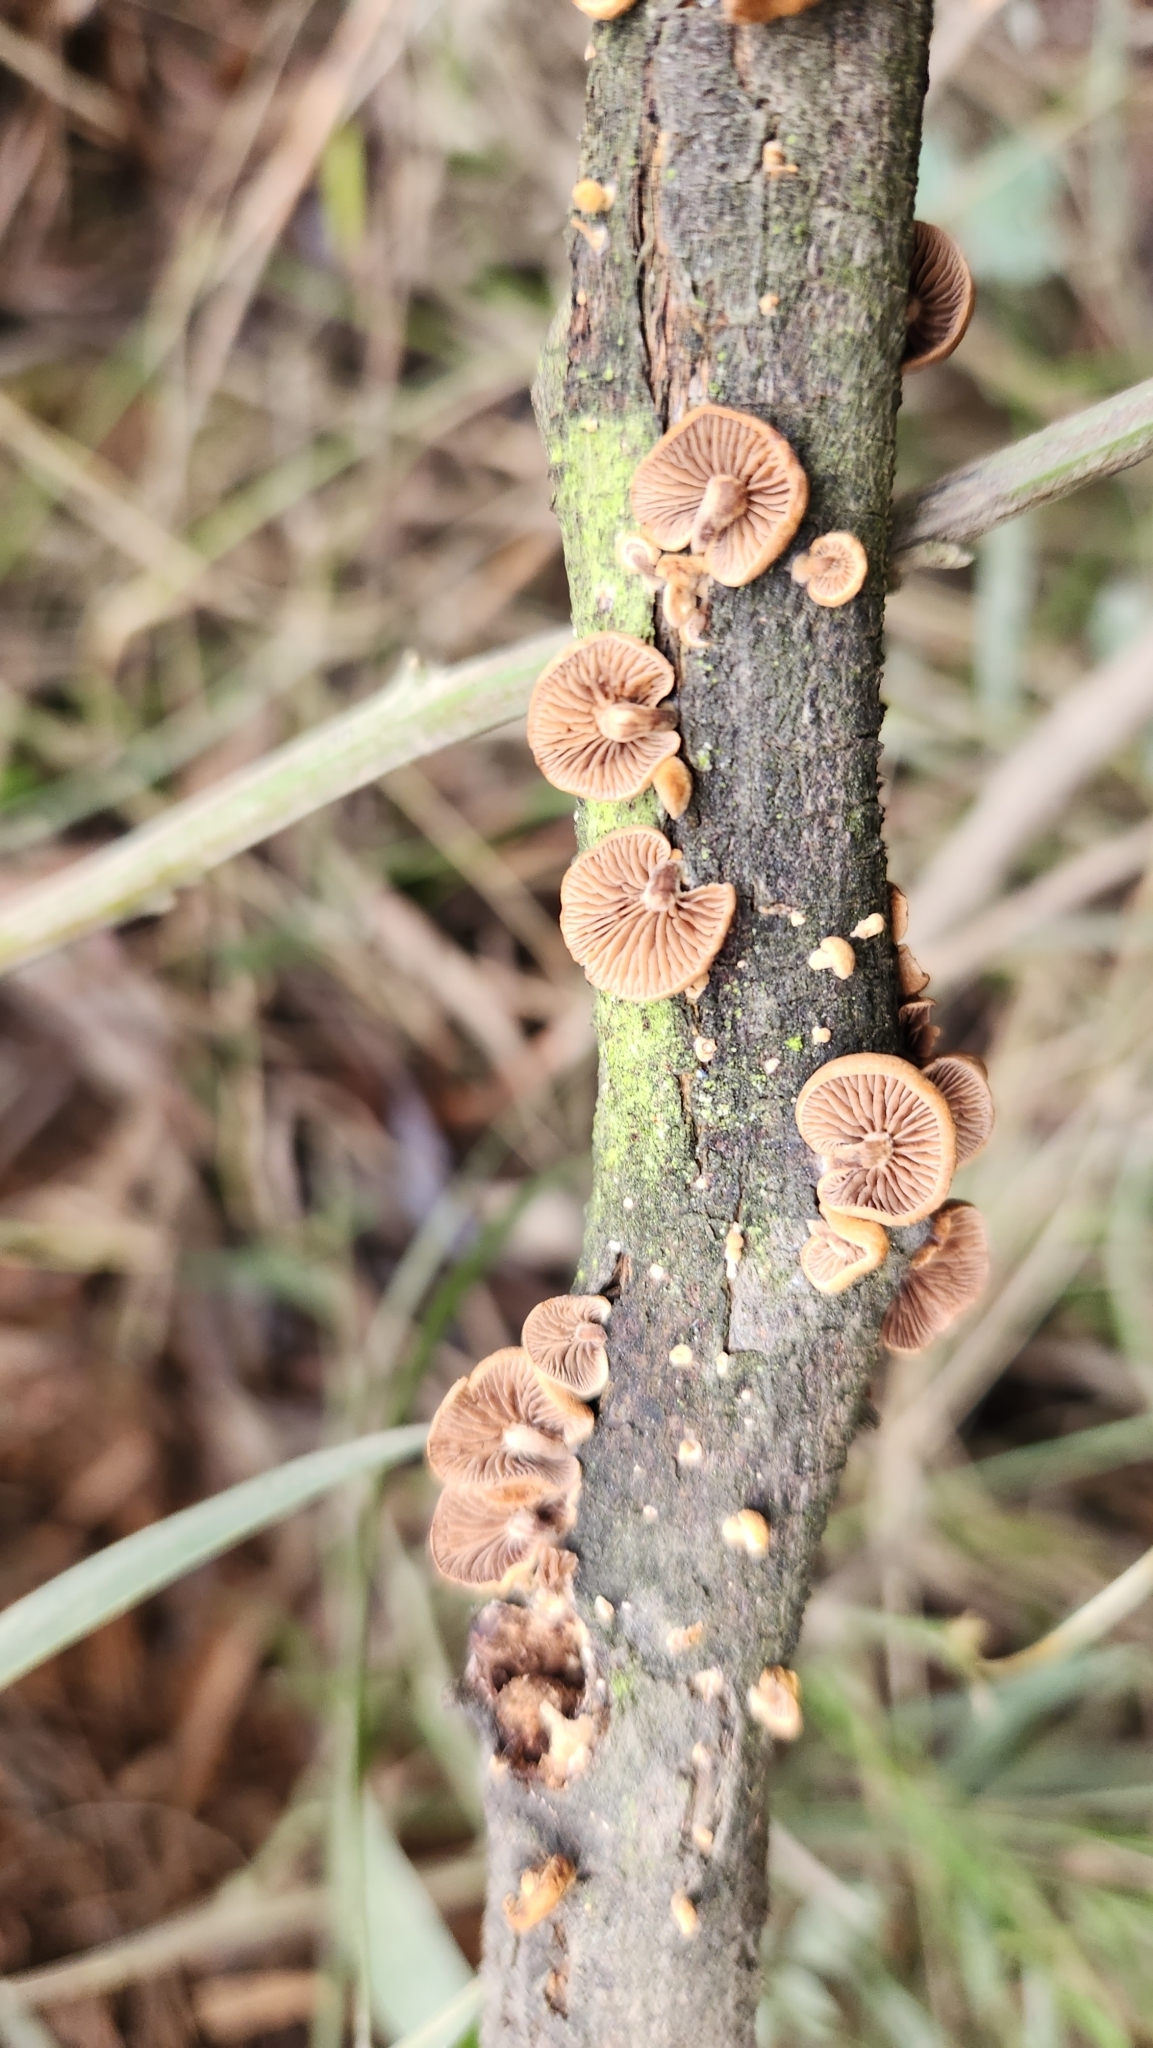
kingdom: Fungi
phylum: Basidiomycota
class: Agaricomycetes
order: Agaricales
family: Strophariaceae
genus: Deconica
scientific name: Deconica horizontalis
